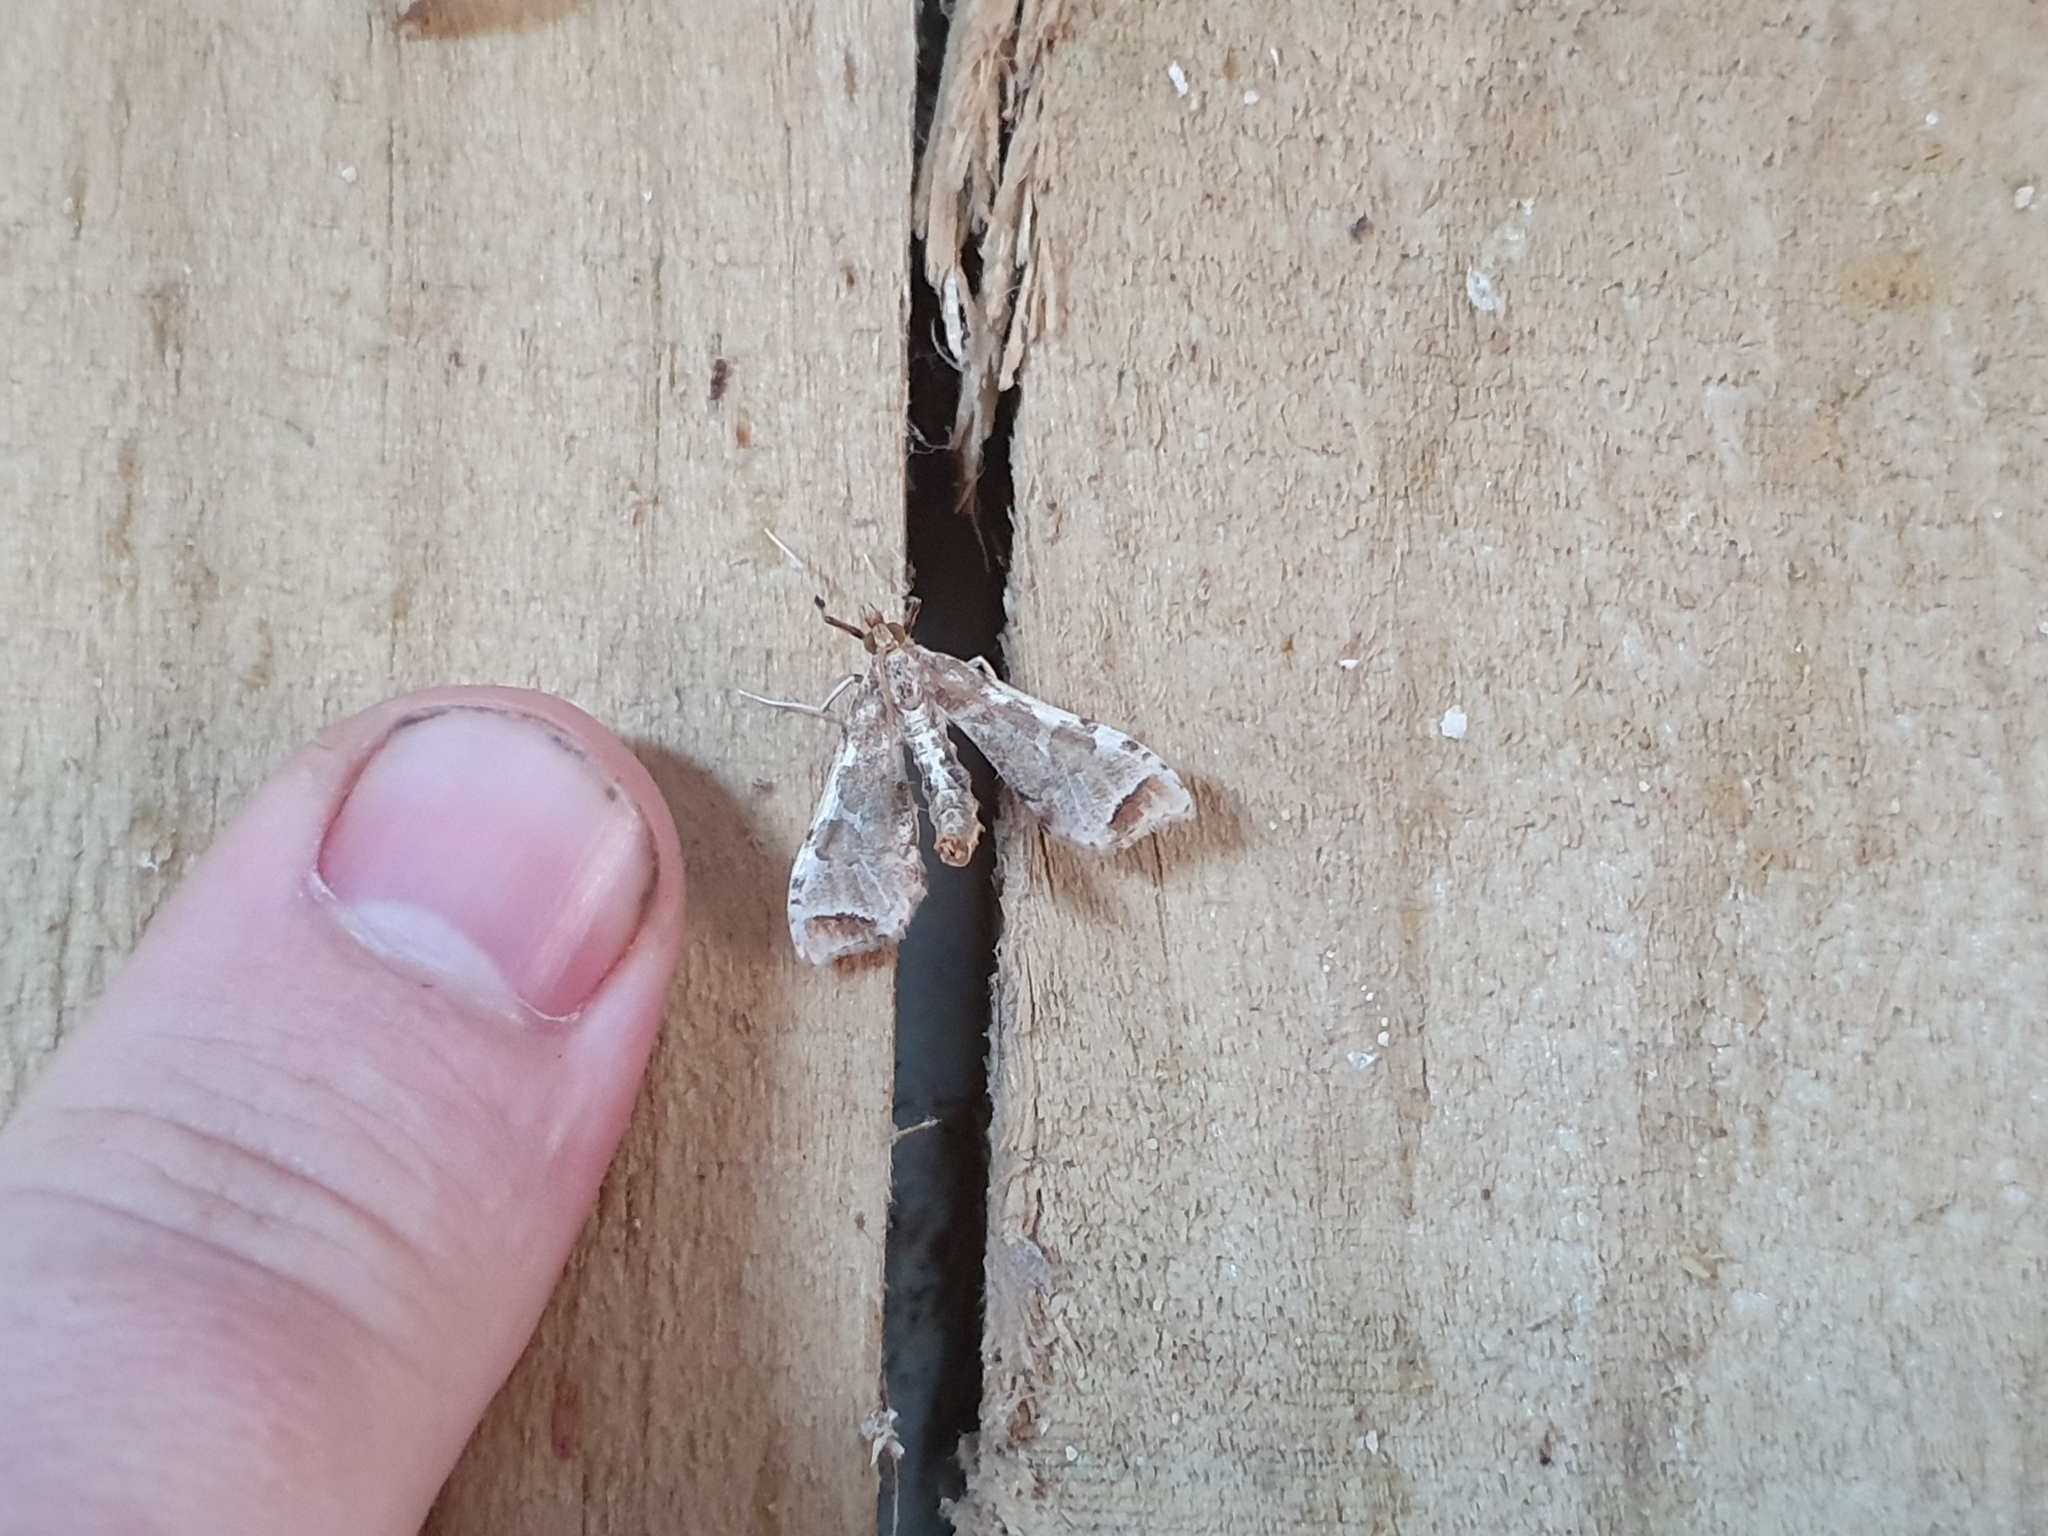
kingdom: Animalia
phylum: Arthropoda
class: Insecta
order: Lepidoptera
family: Crambidae
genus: Sceliodes
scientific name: Sceliodes cordalis
